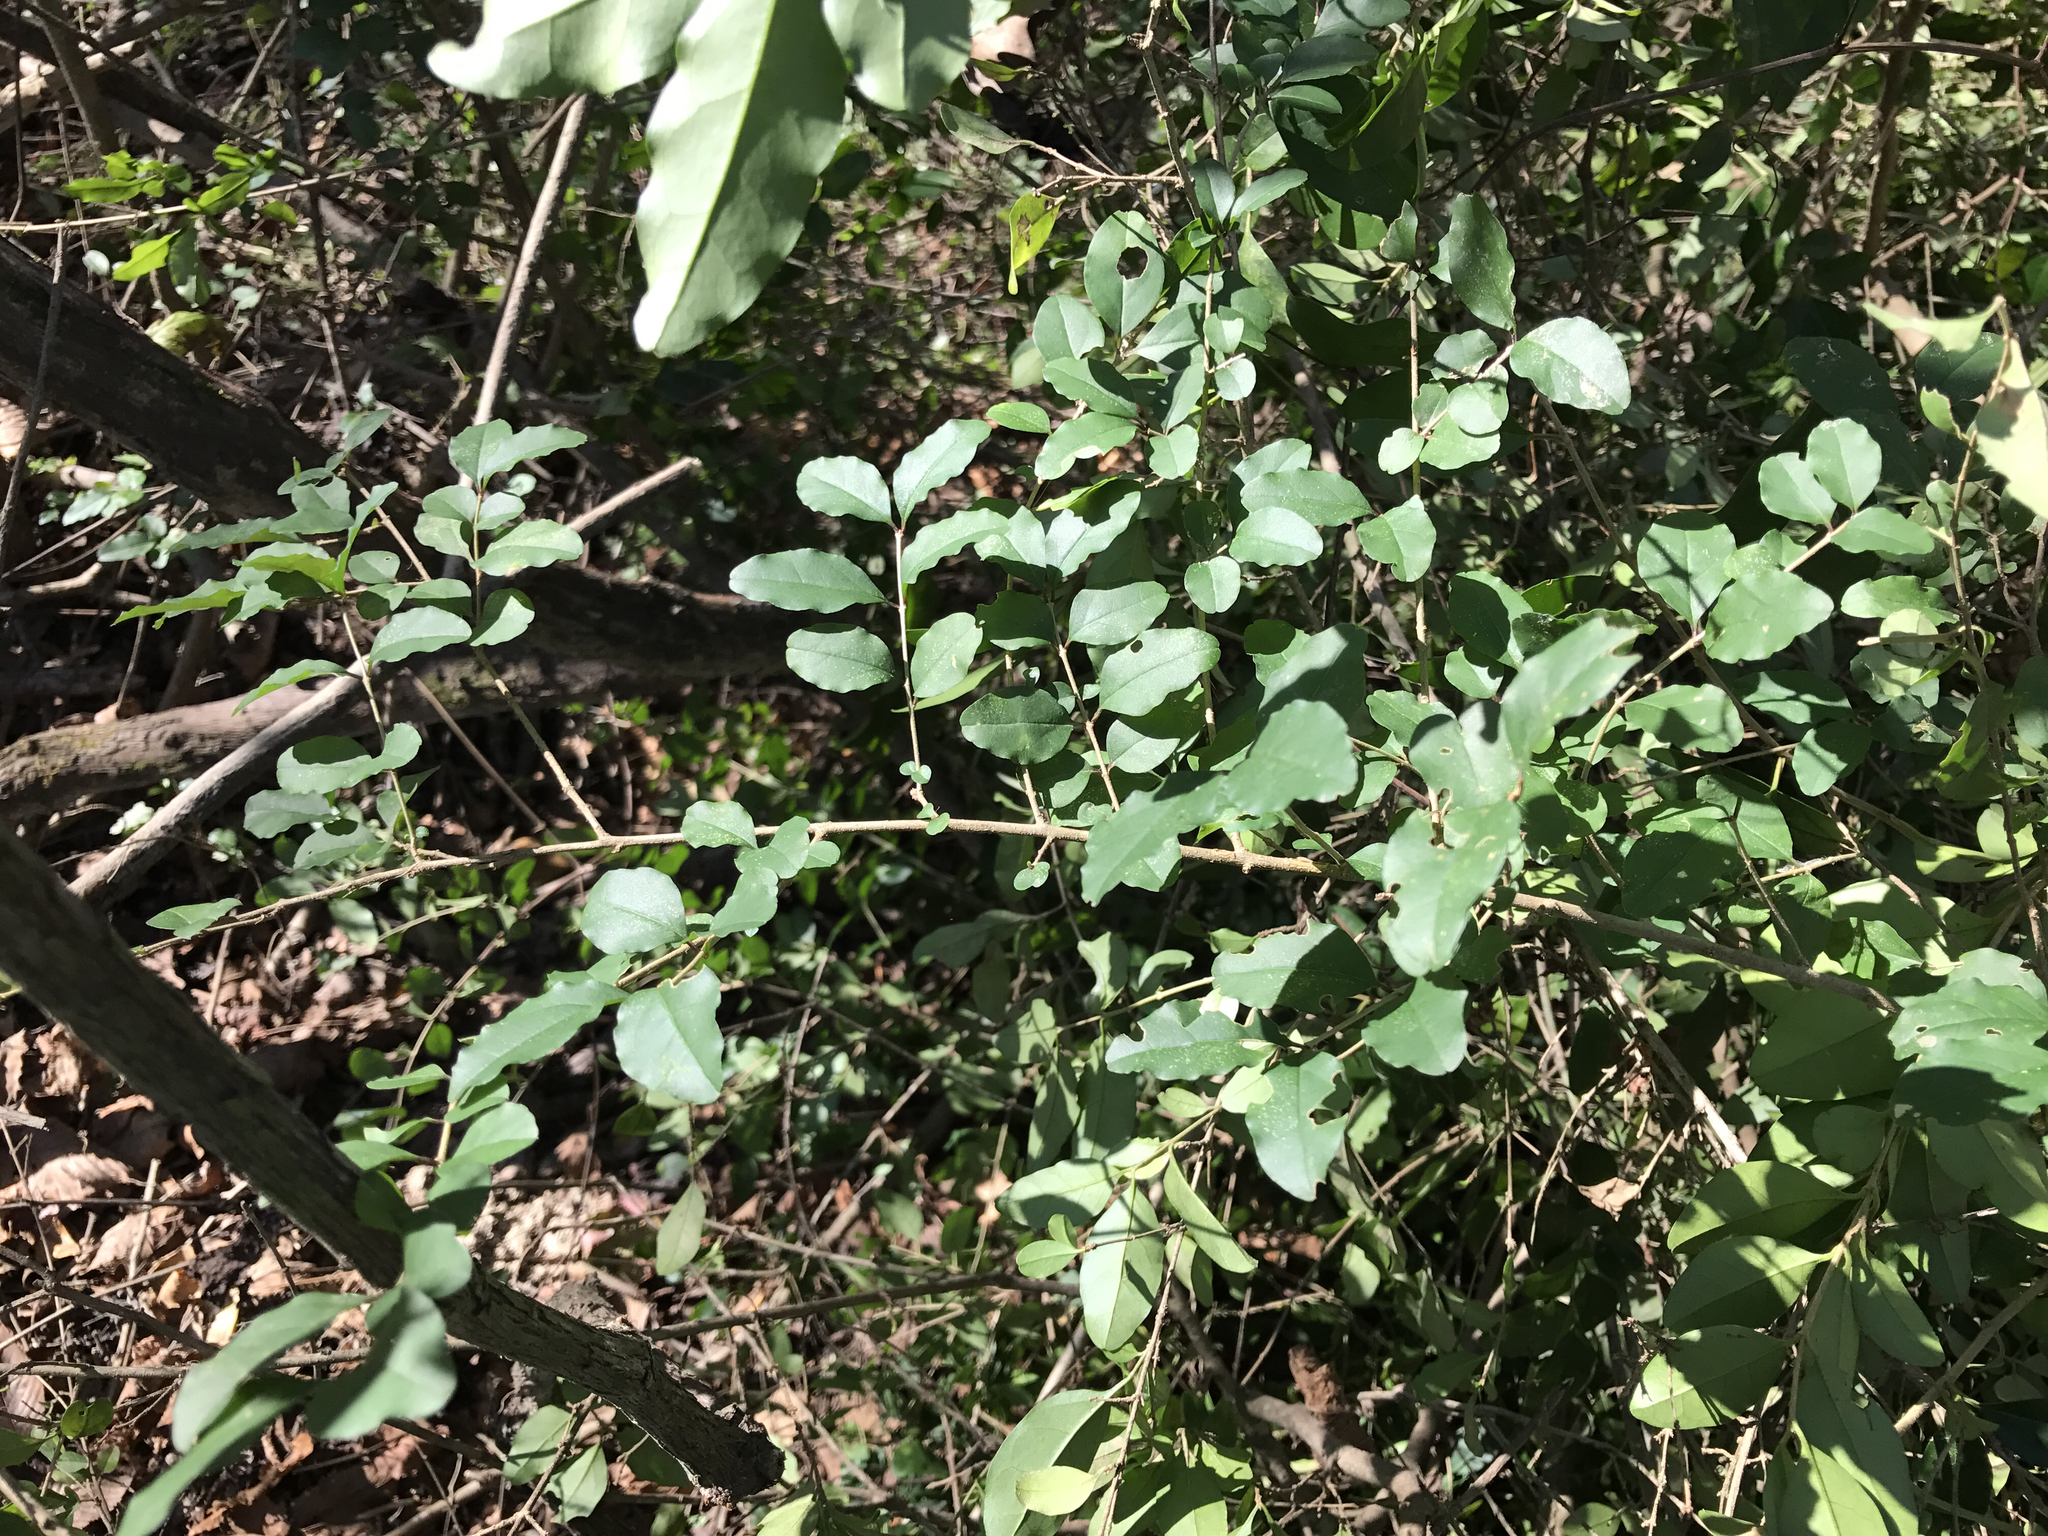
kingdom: Plantae
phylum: Tracheophyta
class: Magnoliopsida
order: Lamiales
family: Oleaceae
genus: Ligustrum
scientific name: Ligustrum sinense
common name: Chinese privet
